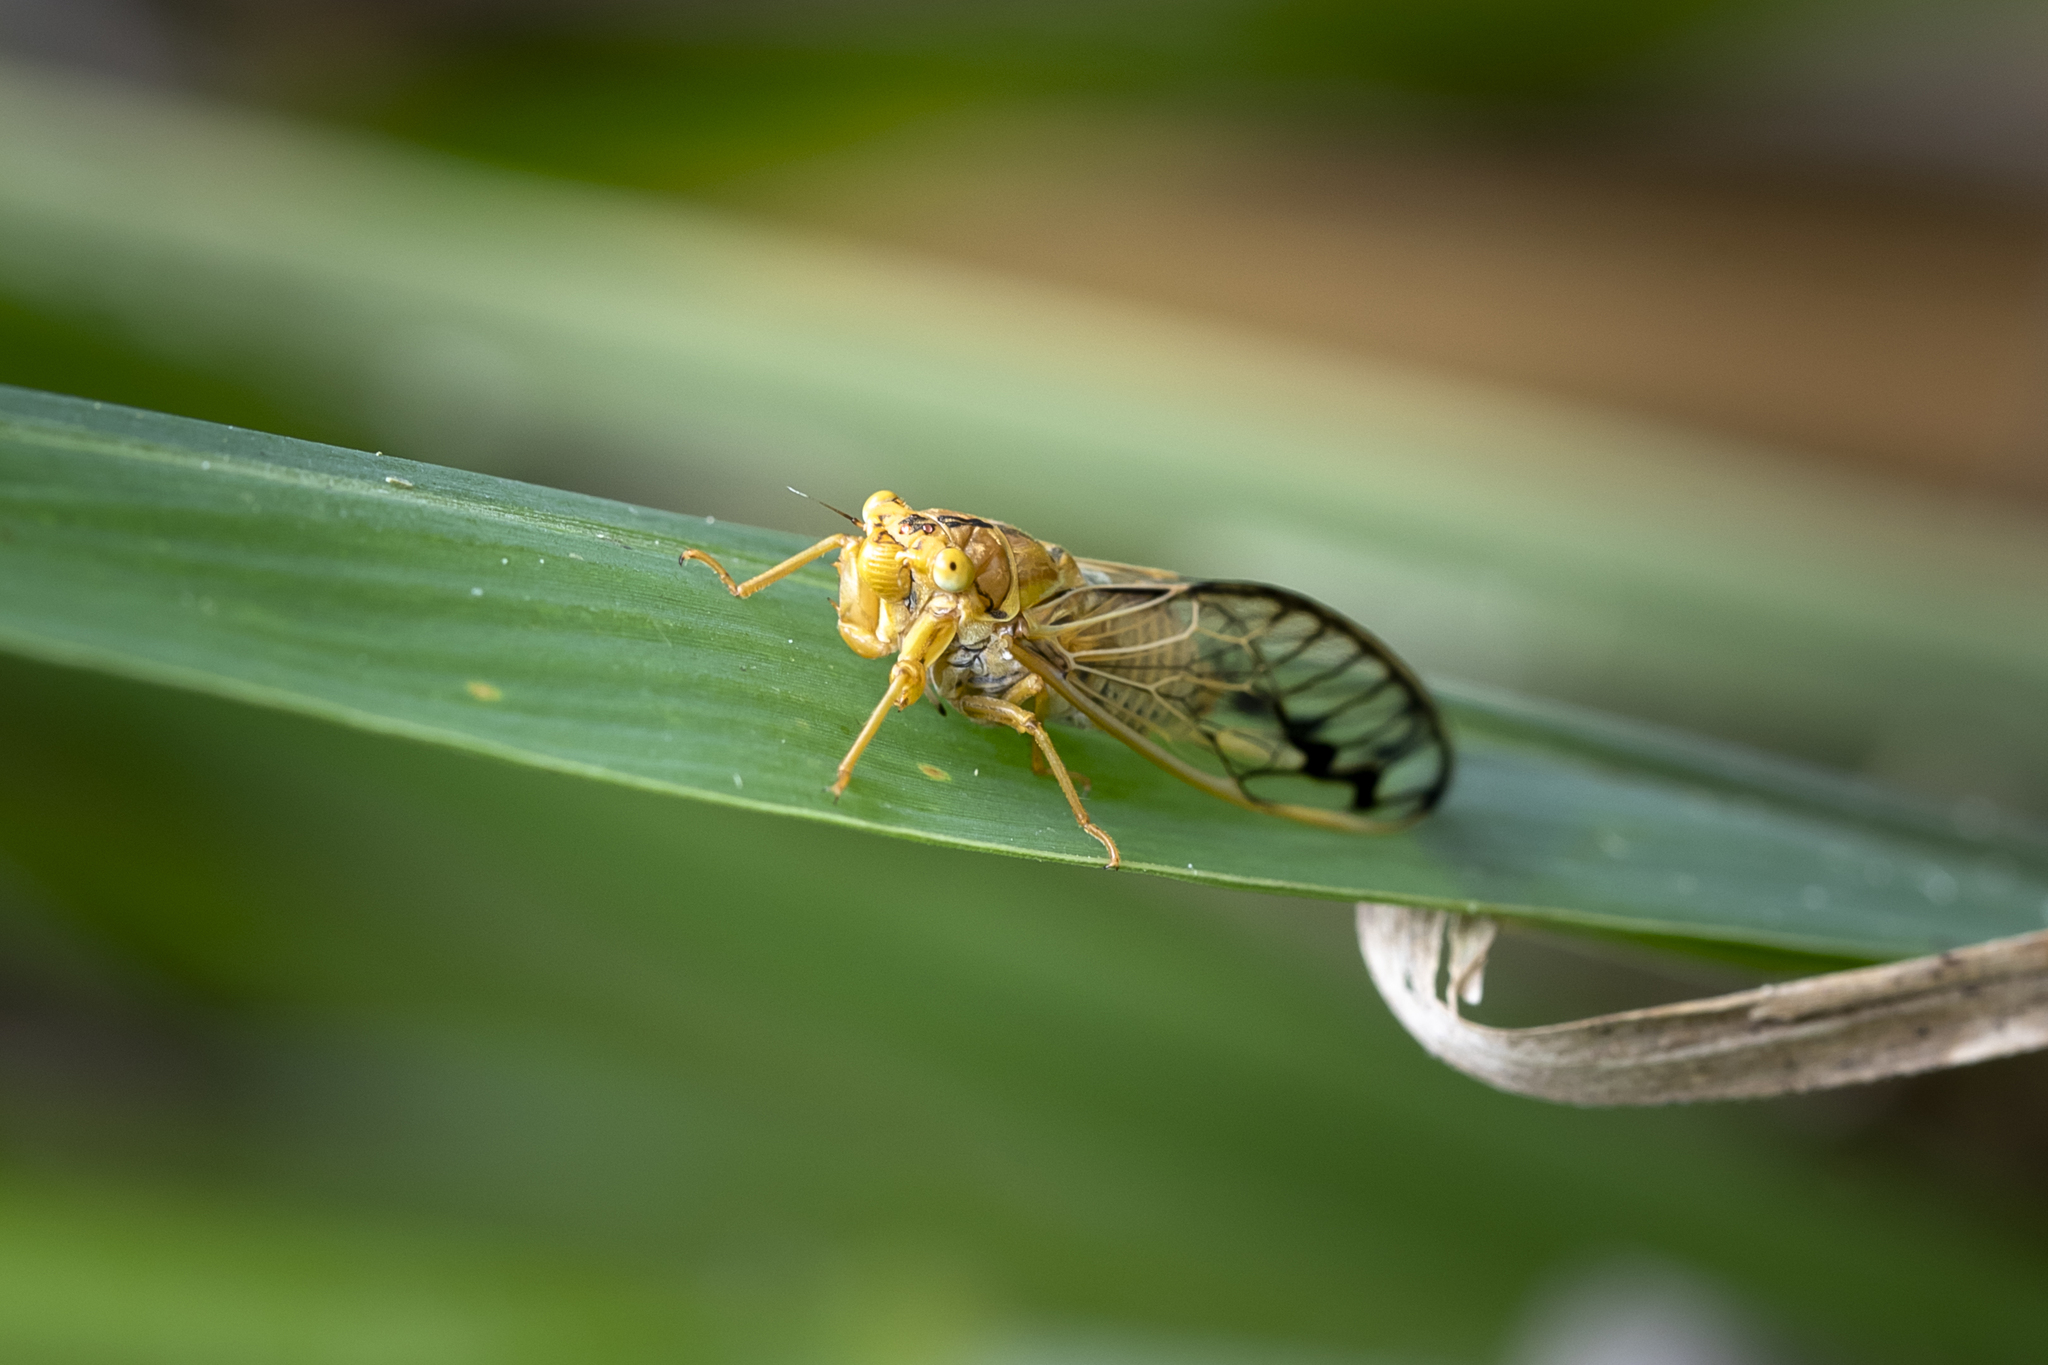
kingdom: Animalia
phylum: Arthropoda
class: Insecta
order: Hemiptera
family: Cicadidae
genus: Parnkalla
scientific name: Parnkalla muelleri
